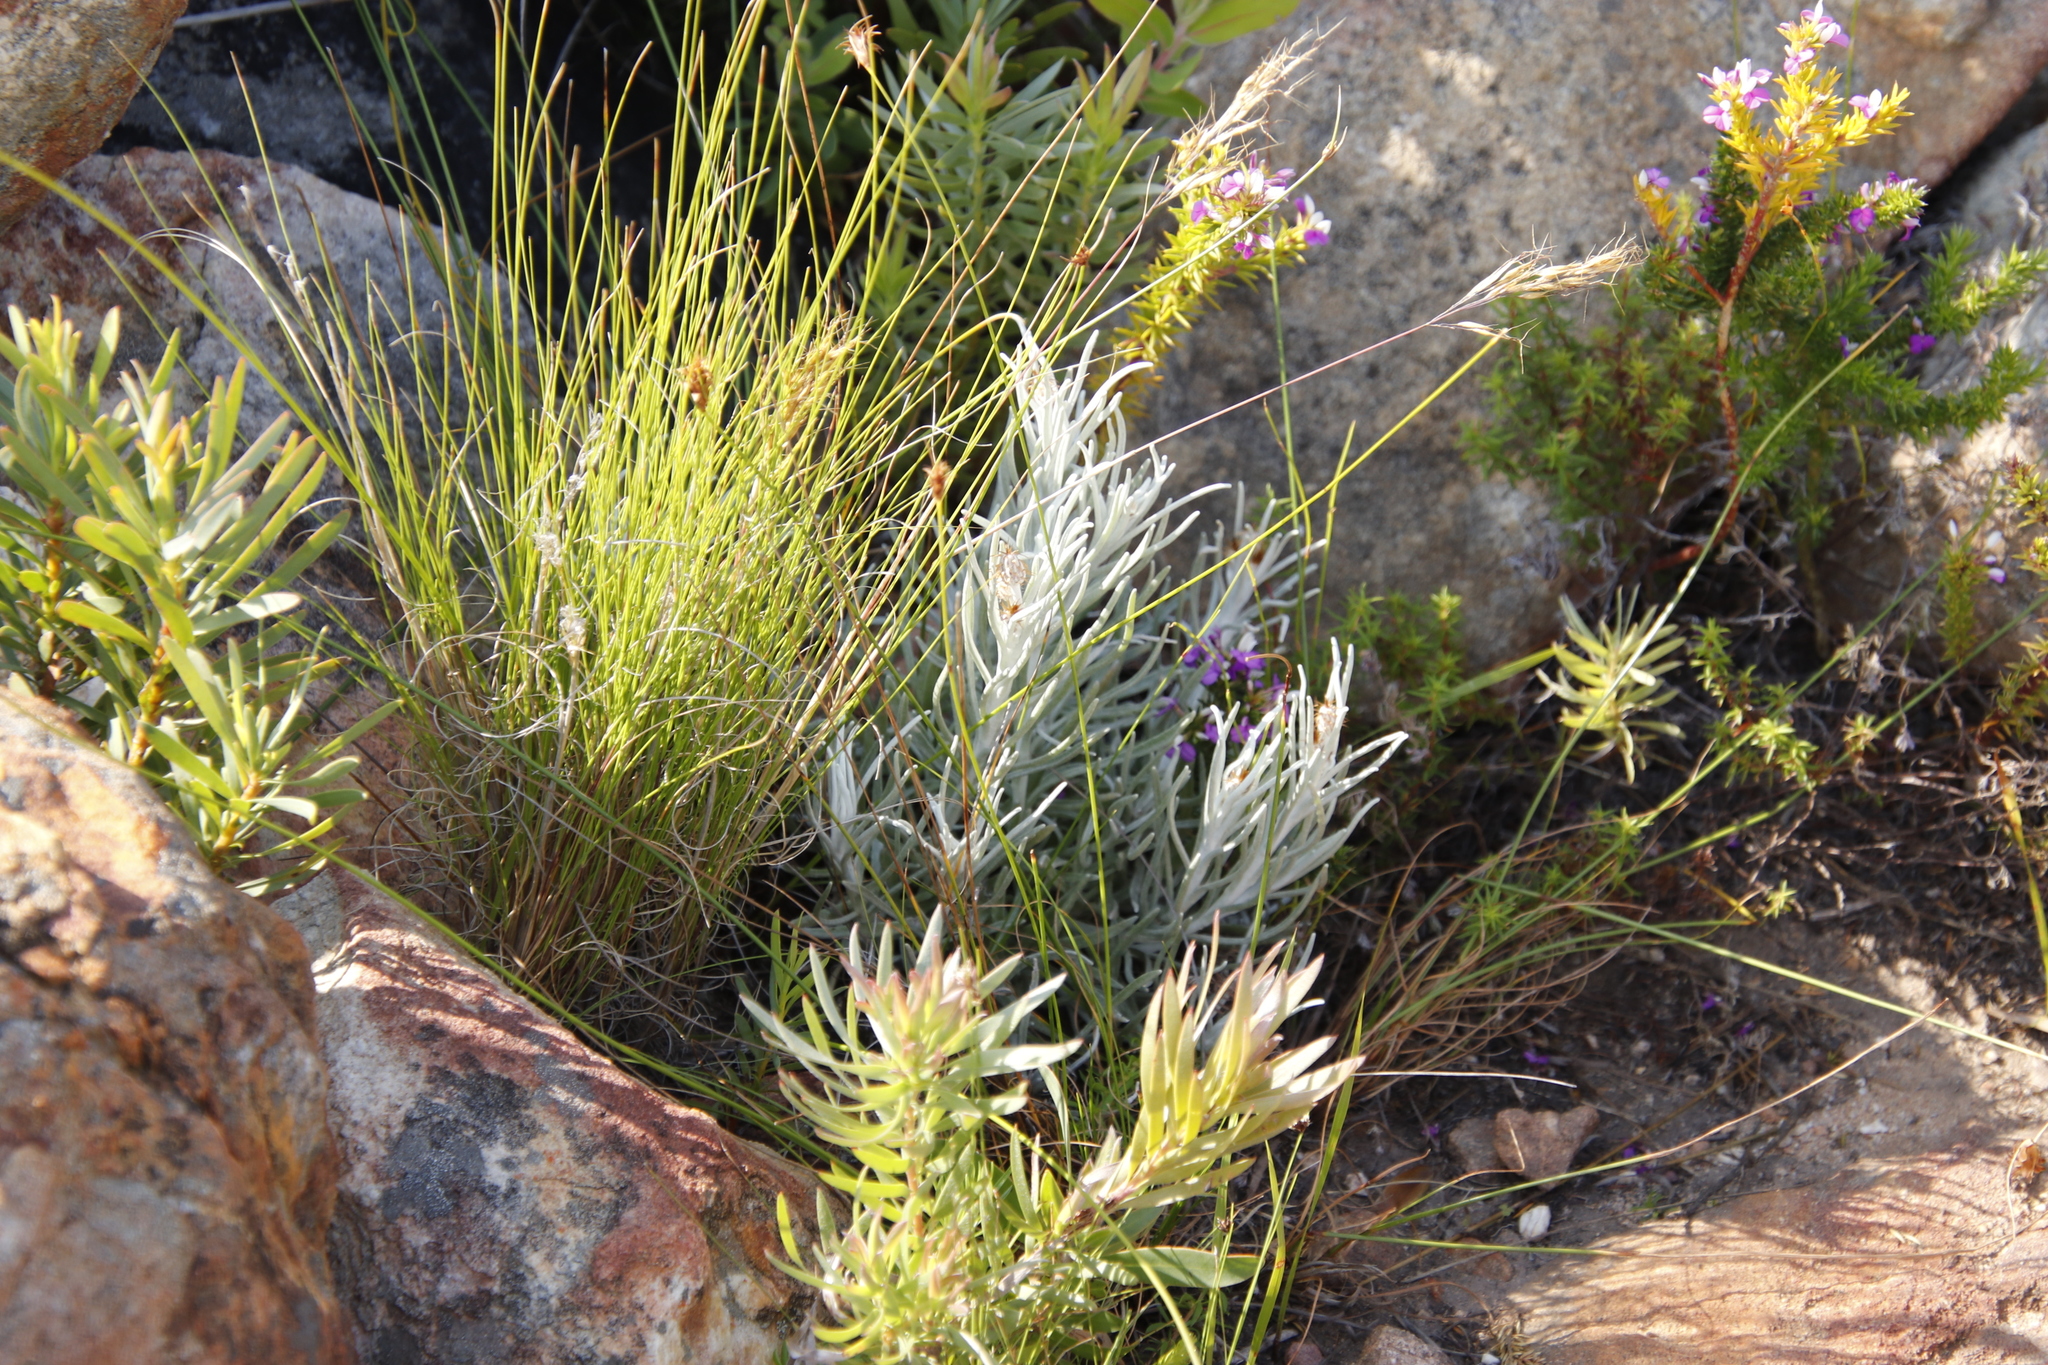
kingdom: Plantae
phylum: Tracheophyta
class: Magnoliopsida
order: Asterales
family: Asteraceae
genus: Syncarpha
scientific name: Syncarpha gnaphaloides
